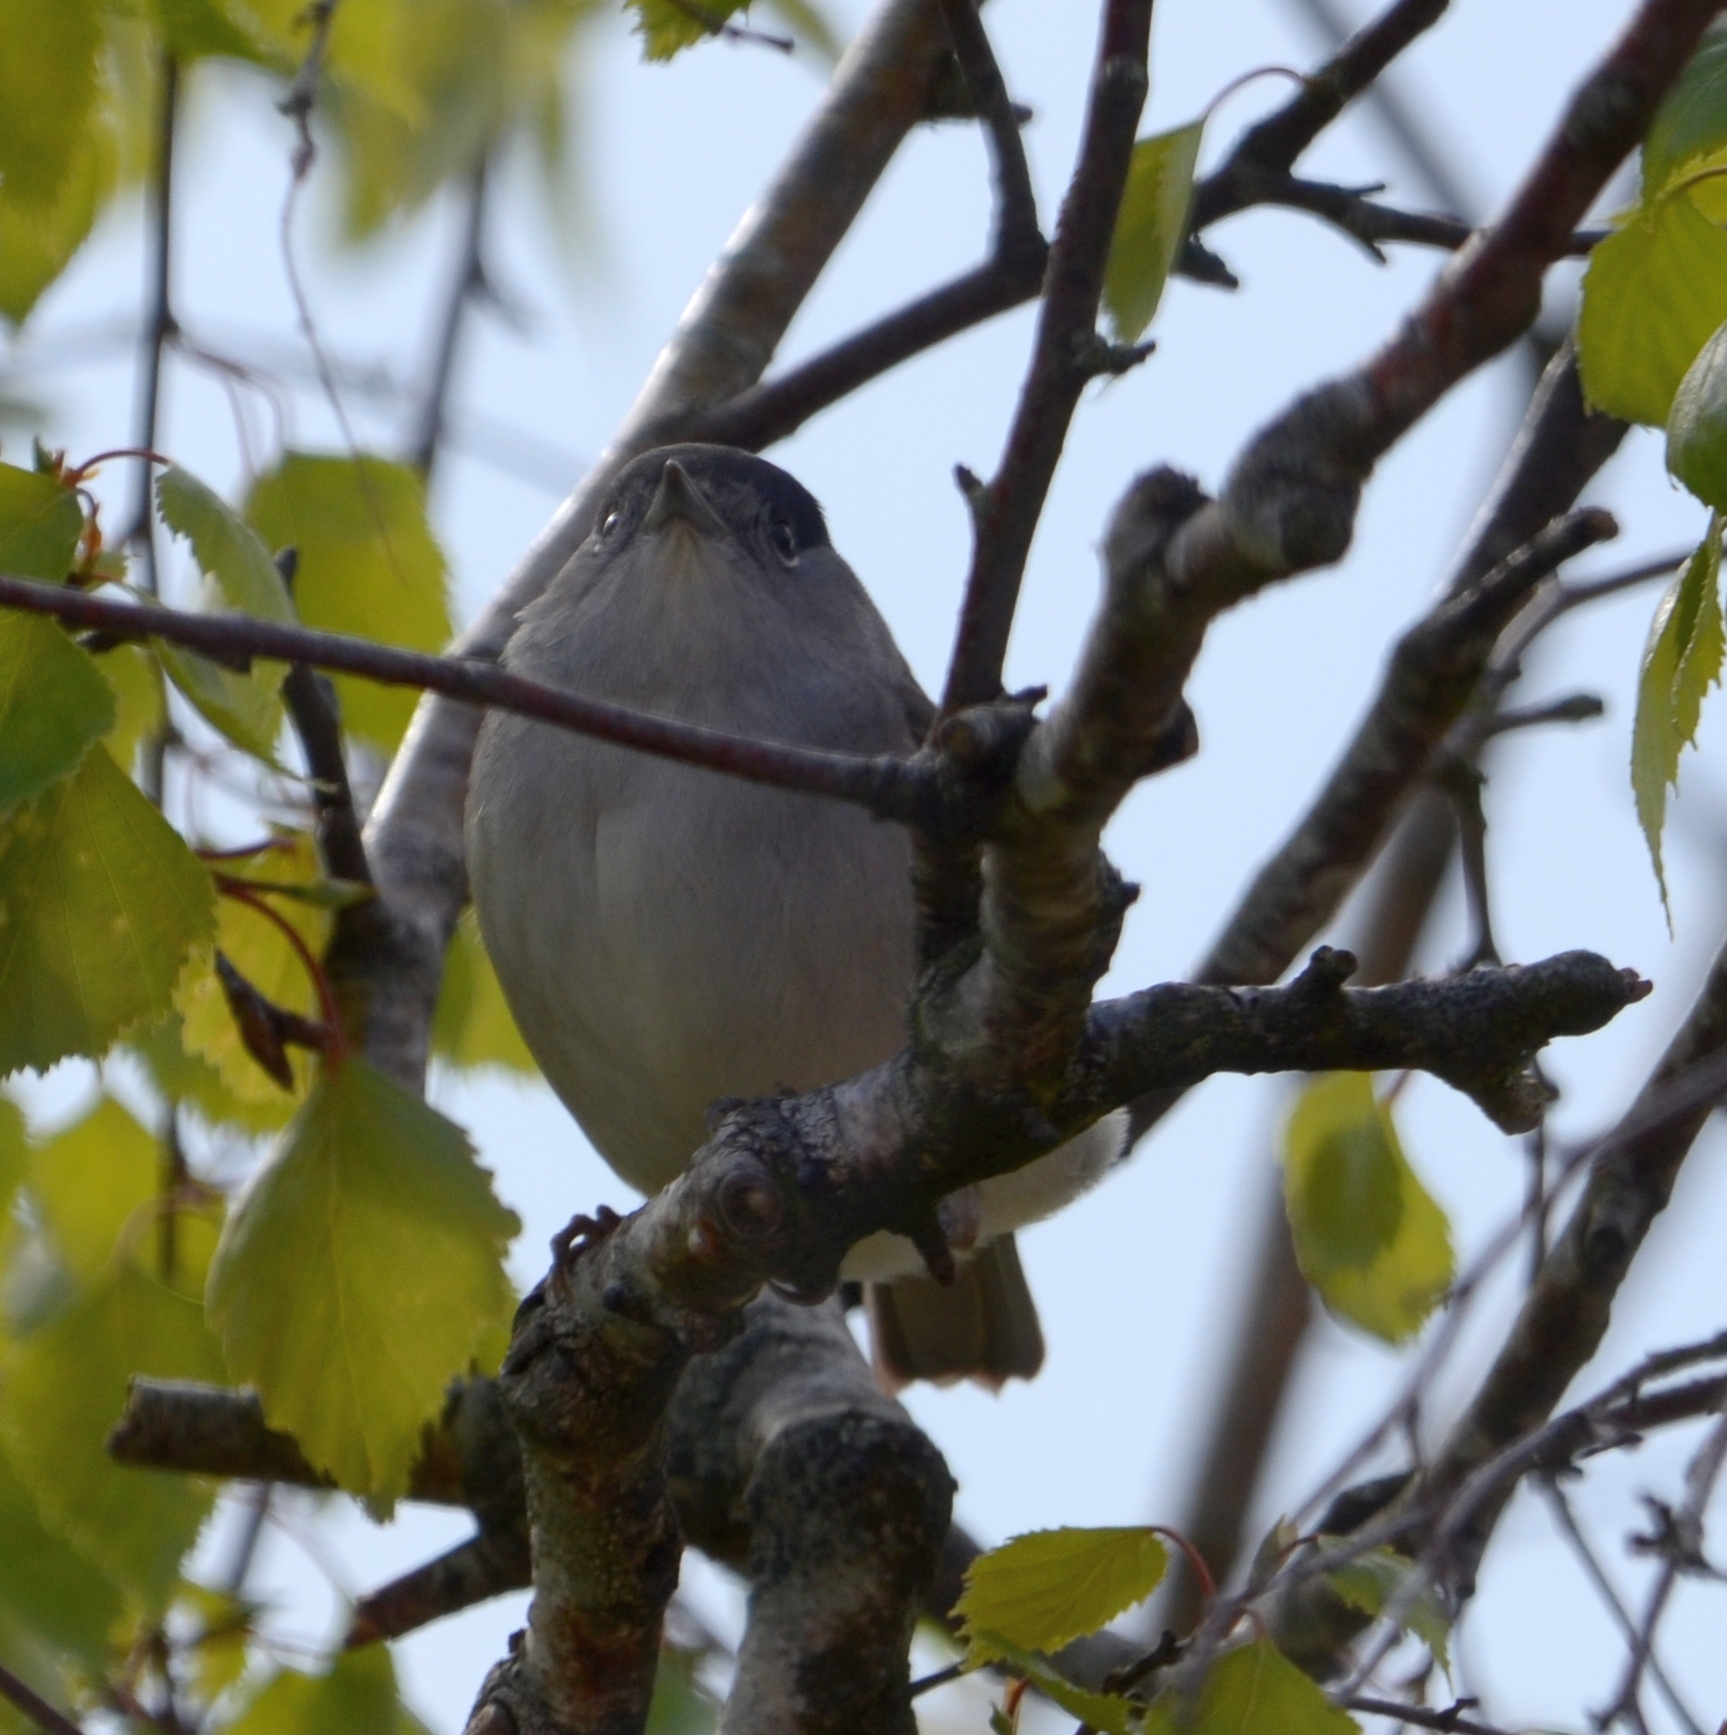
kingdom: Animalia
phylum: Chordata
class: Aves
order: Passeriformes
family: Sylviidae
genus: Sylvia
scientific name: Sylvia atricapilla
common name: Eurasian blackcap
